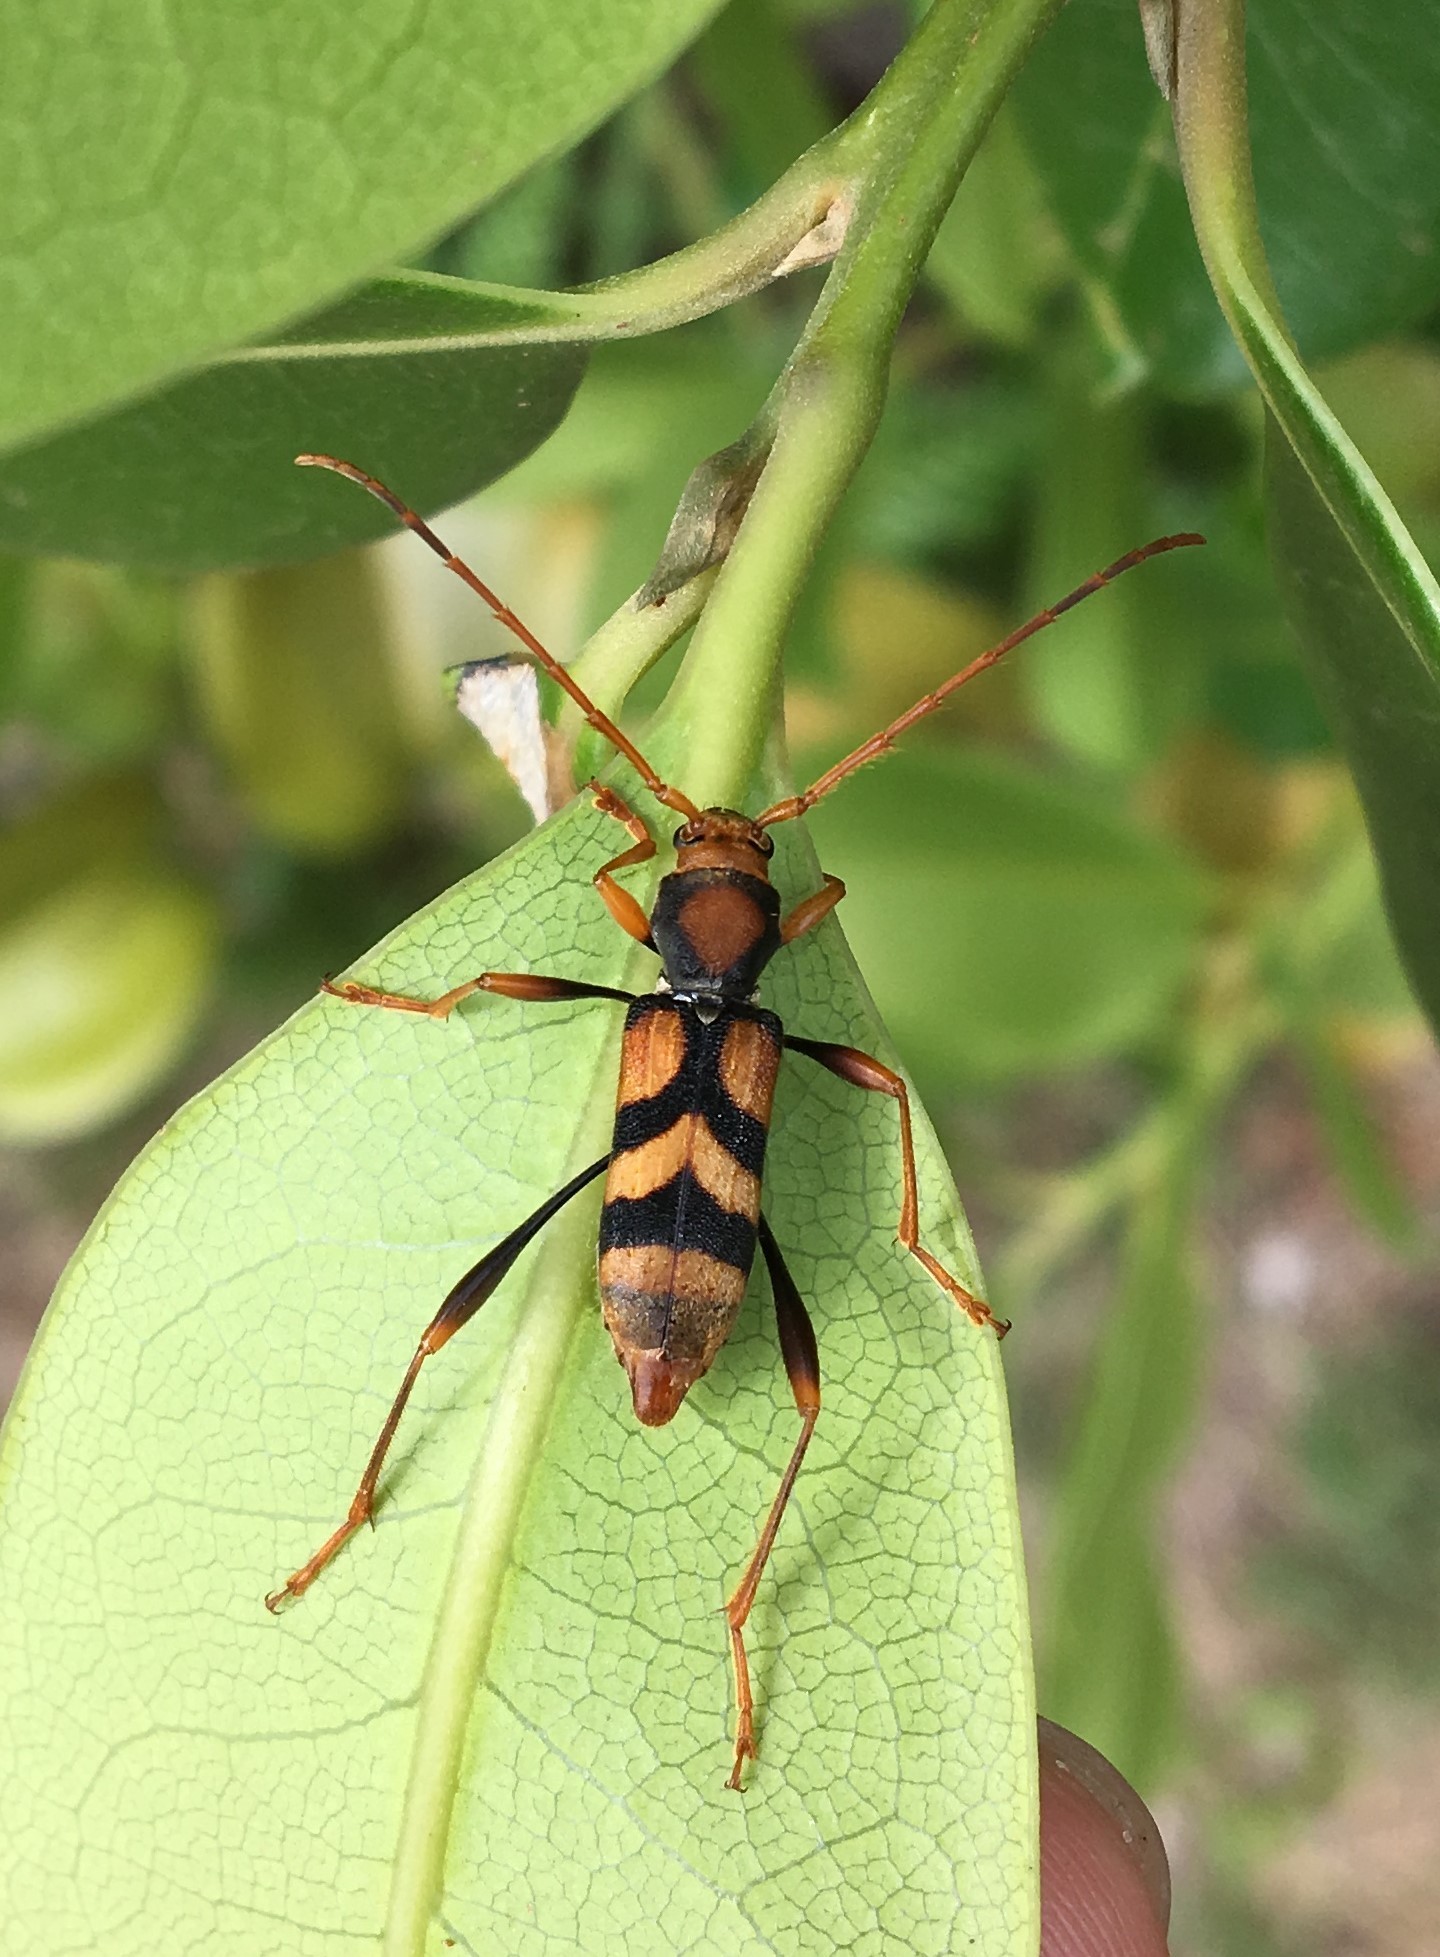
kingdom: Animalia
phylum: Arthropoda
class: Insecta
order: Coleoptera
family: Cerambycidae
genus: Aridaeus
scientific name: Aridaeus thoracicus
